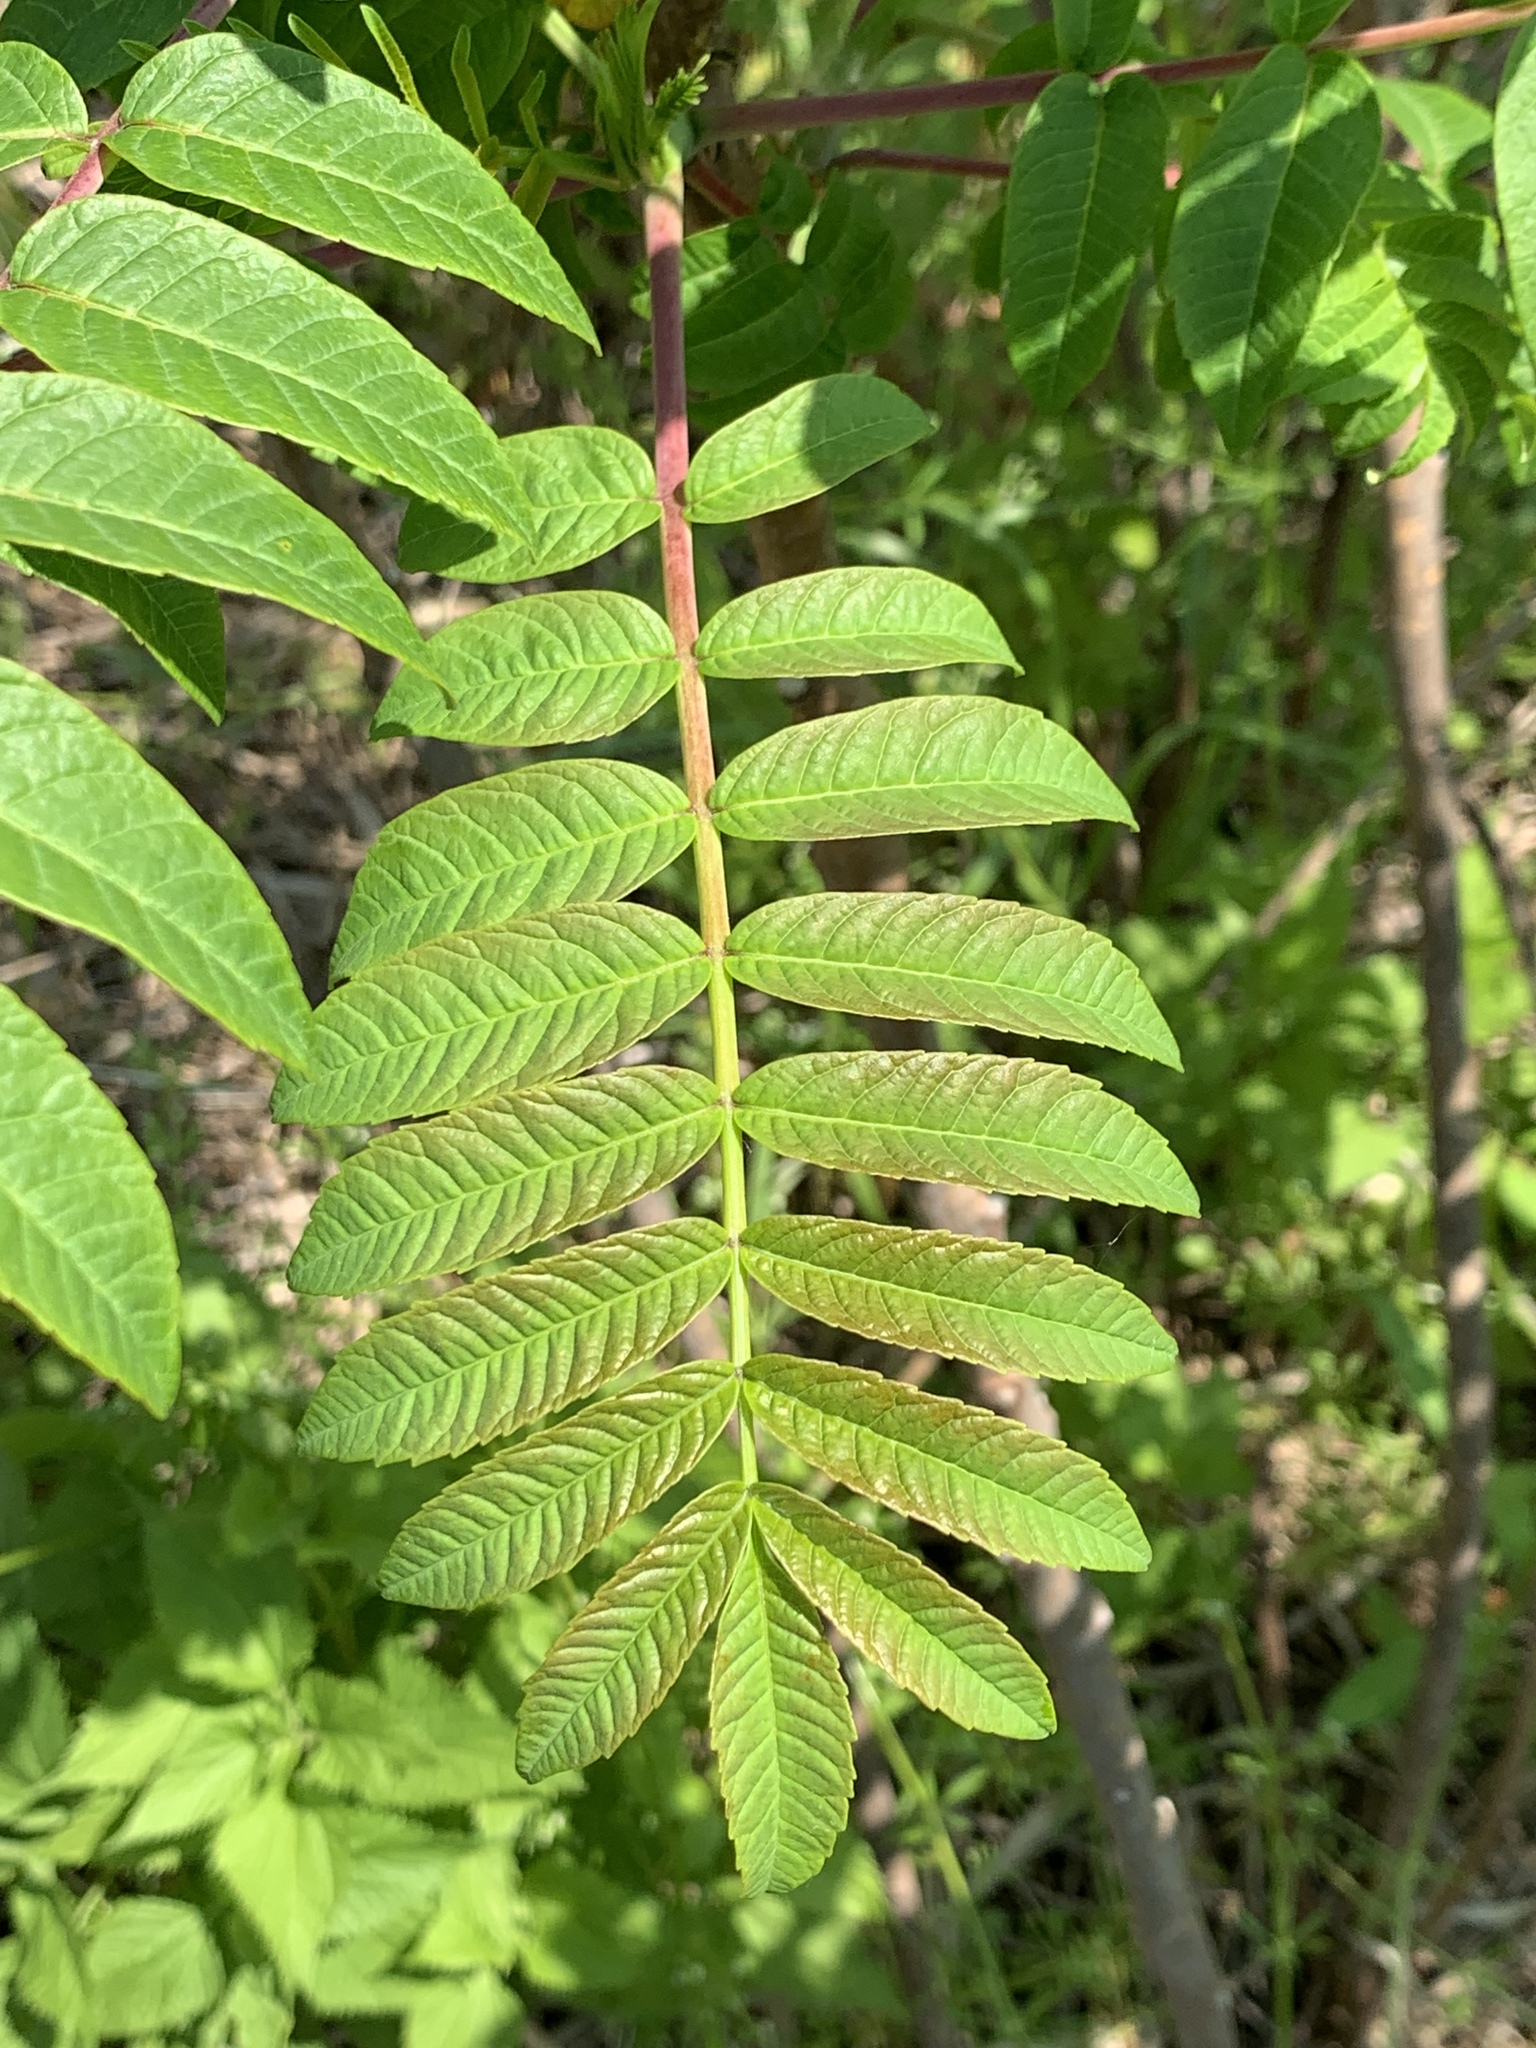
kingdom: Plantae
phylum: Tracheophyta
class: Magnoliopsida
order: Sapindales
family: Anacardiaceae
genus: Rhus
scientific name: Rhus glabra
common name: Scarlet sumac
